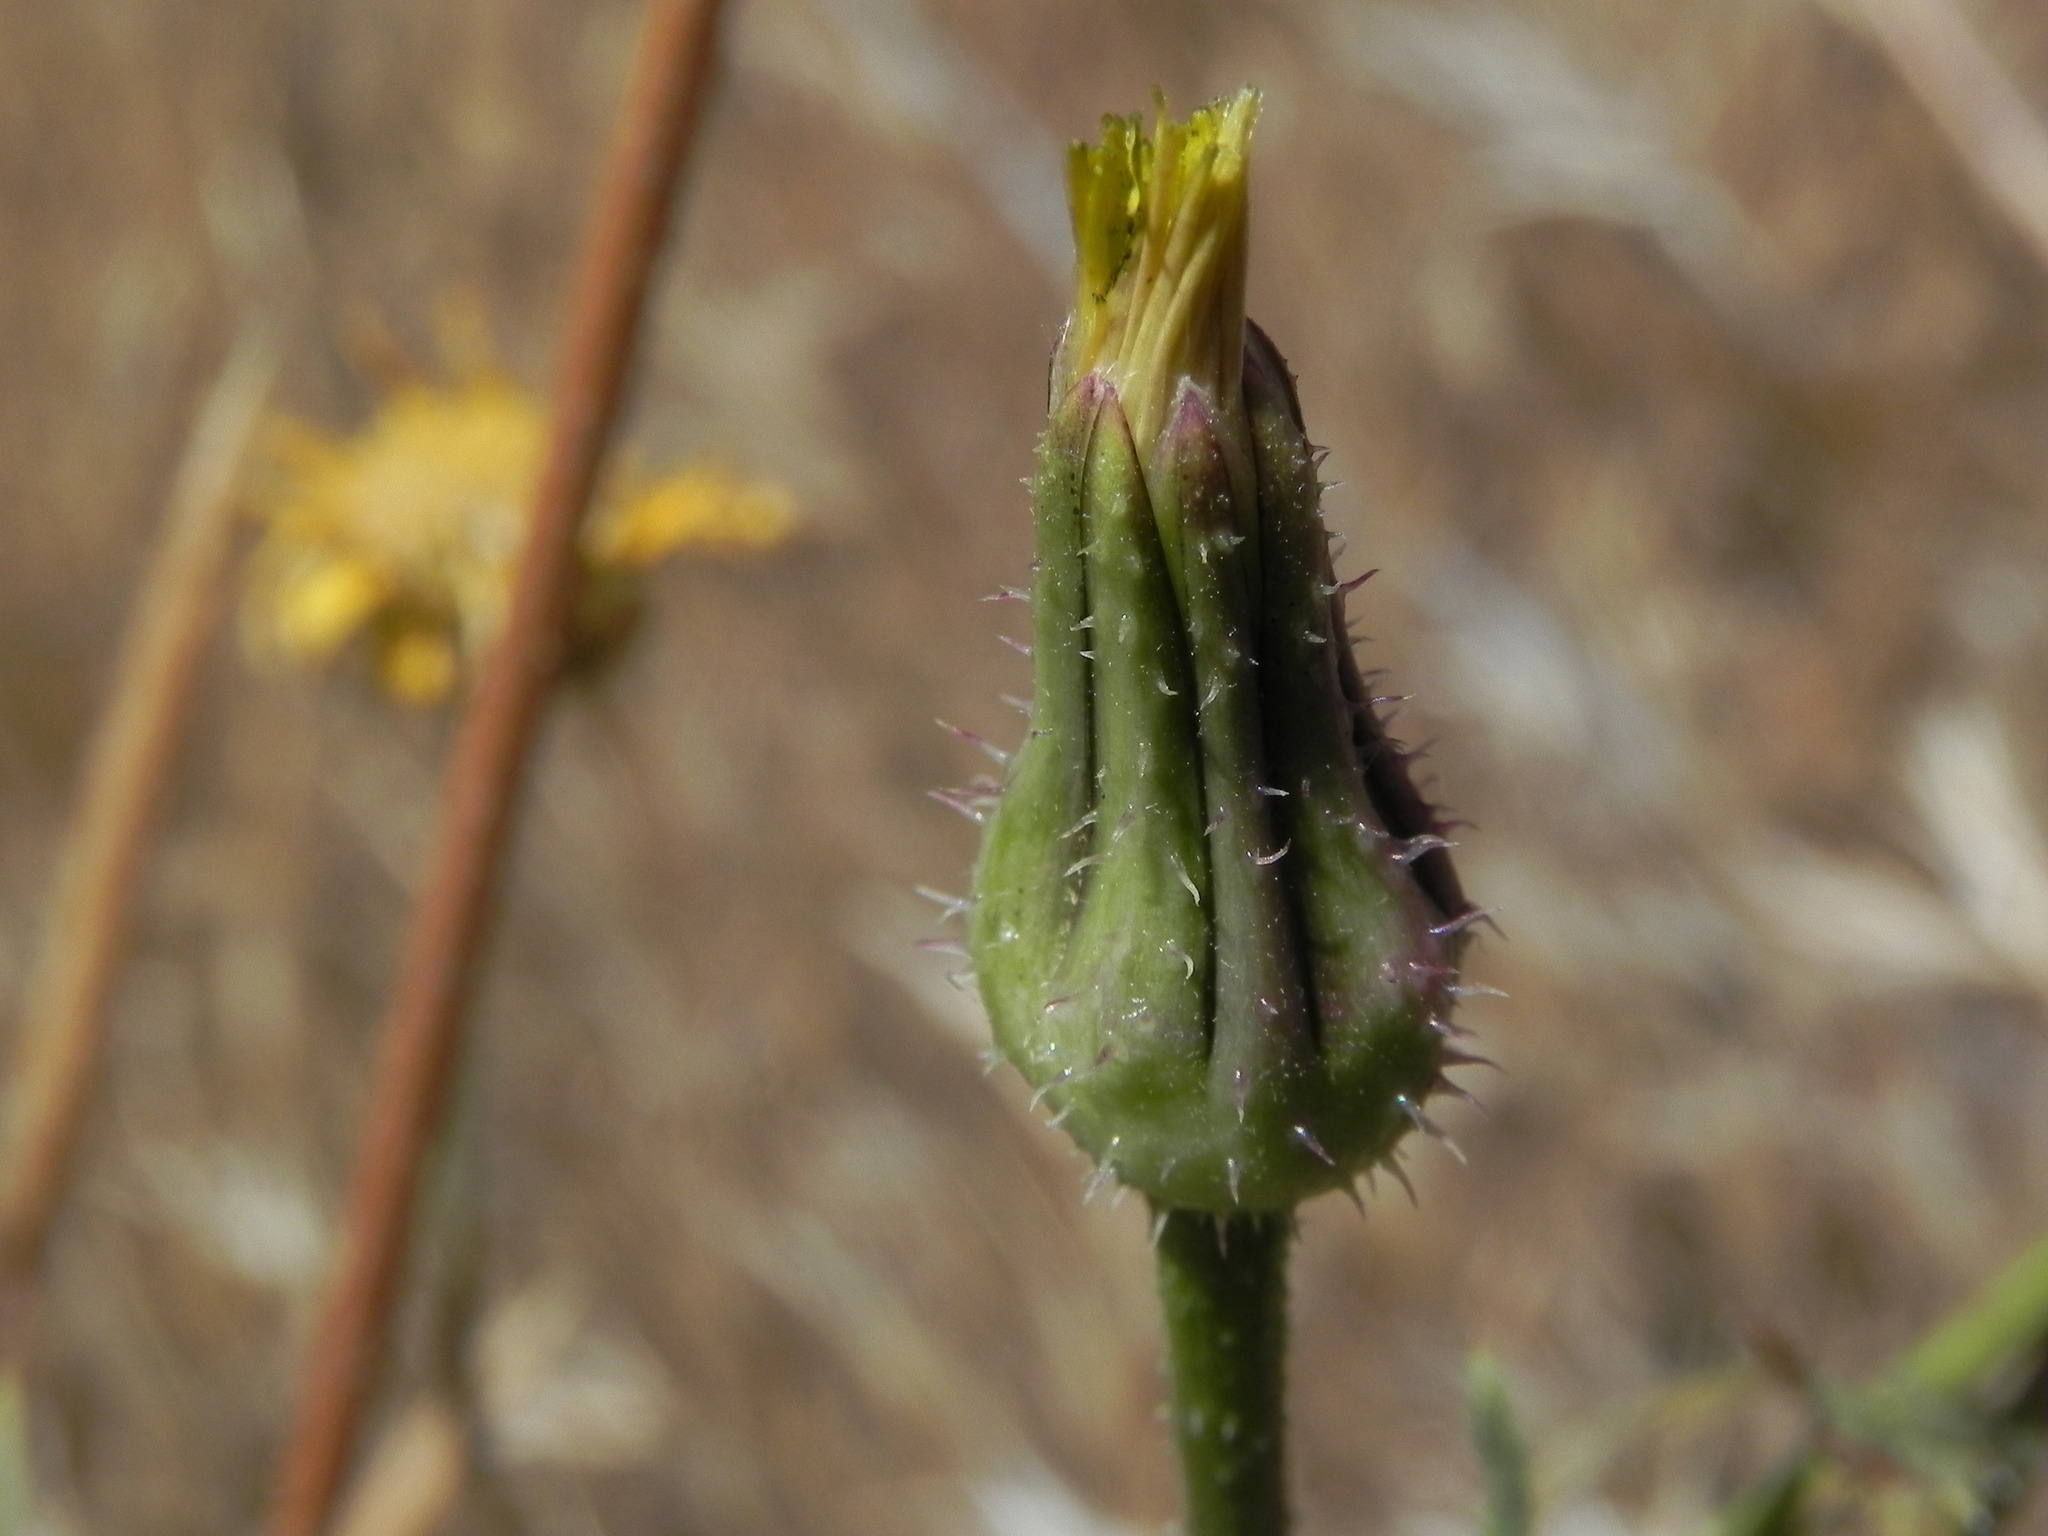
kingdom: Plantae
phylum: Tracheophyta
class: Magnoliopsida
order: Asterales
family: Asteraceae
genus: Urospermum
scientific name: Urospermum picroides
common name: False hawkbit
